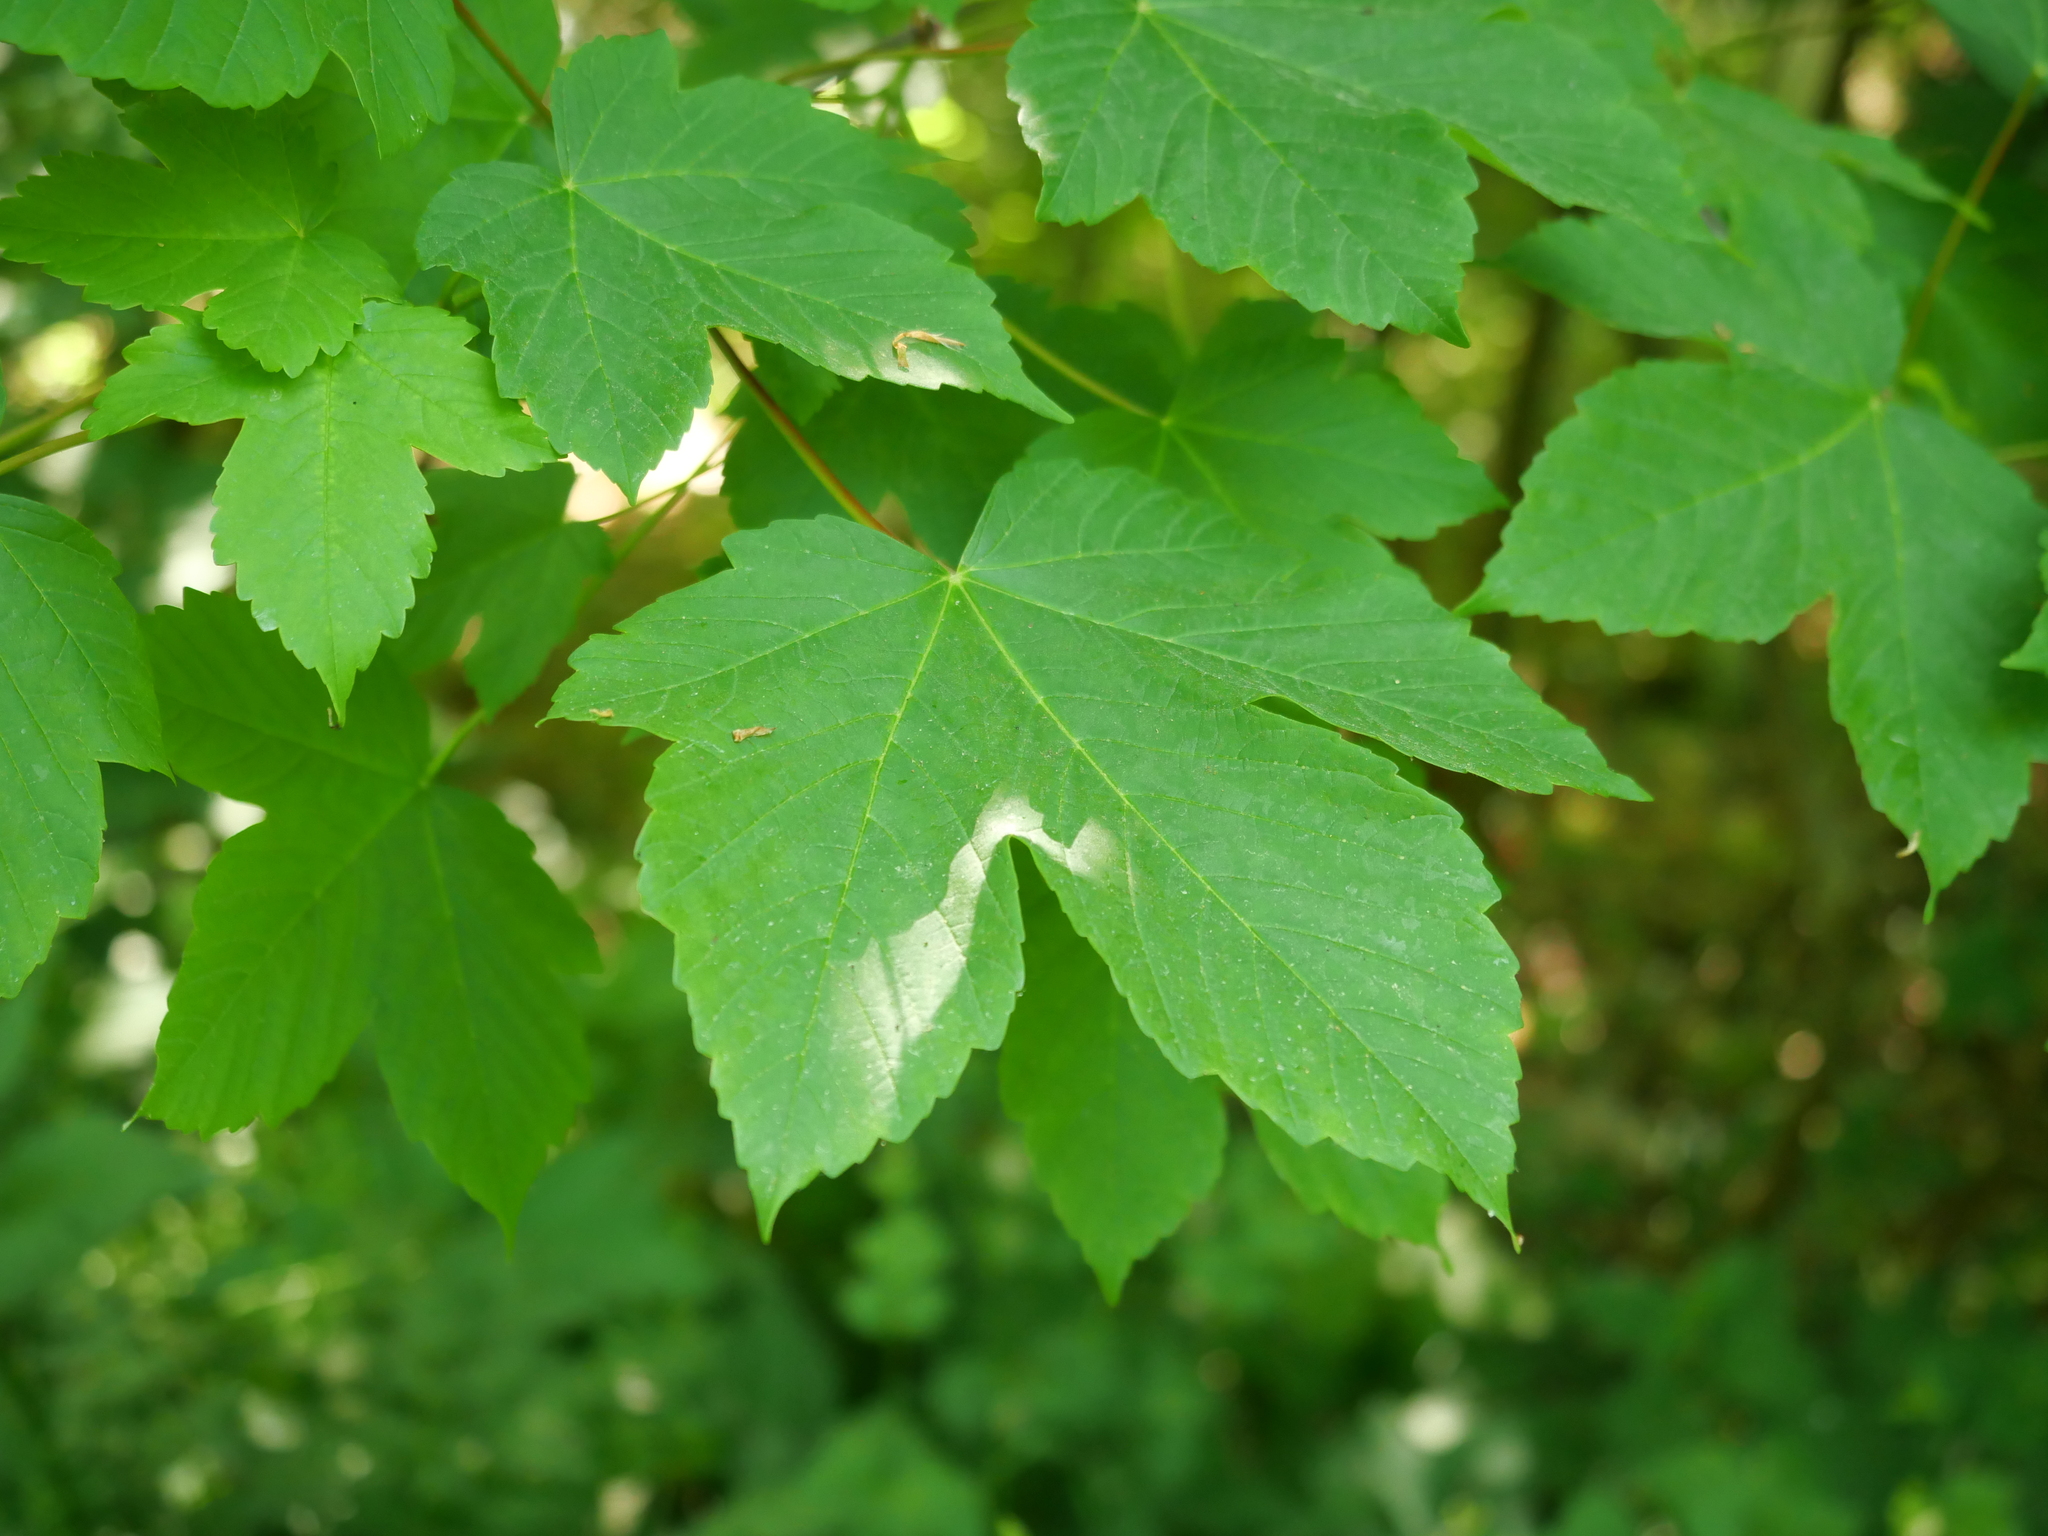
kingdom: Plantae
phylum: Tracheophyta
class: Magnoliopsida
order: Sapindales
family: Sapindaceae
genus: Acer
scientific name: Acer pseudoplatanus
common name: Sycamore
